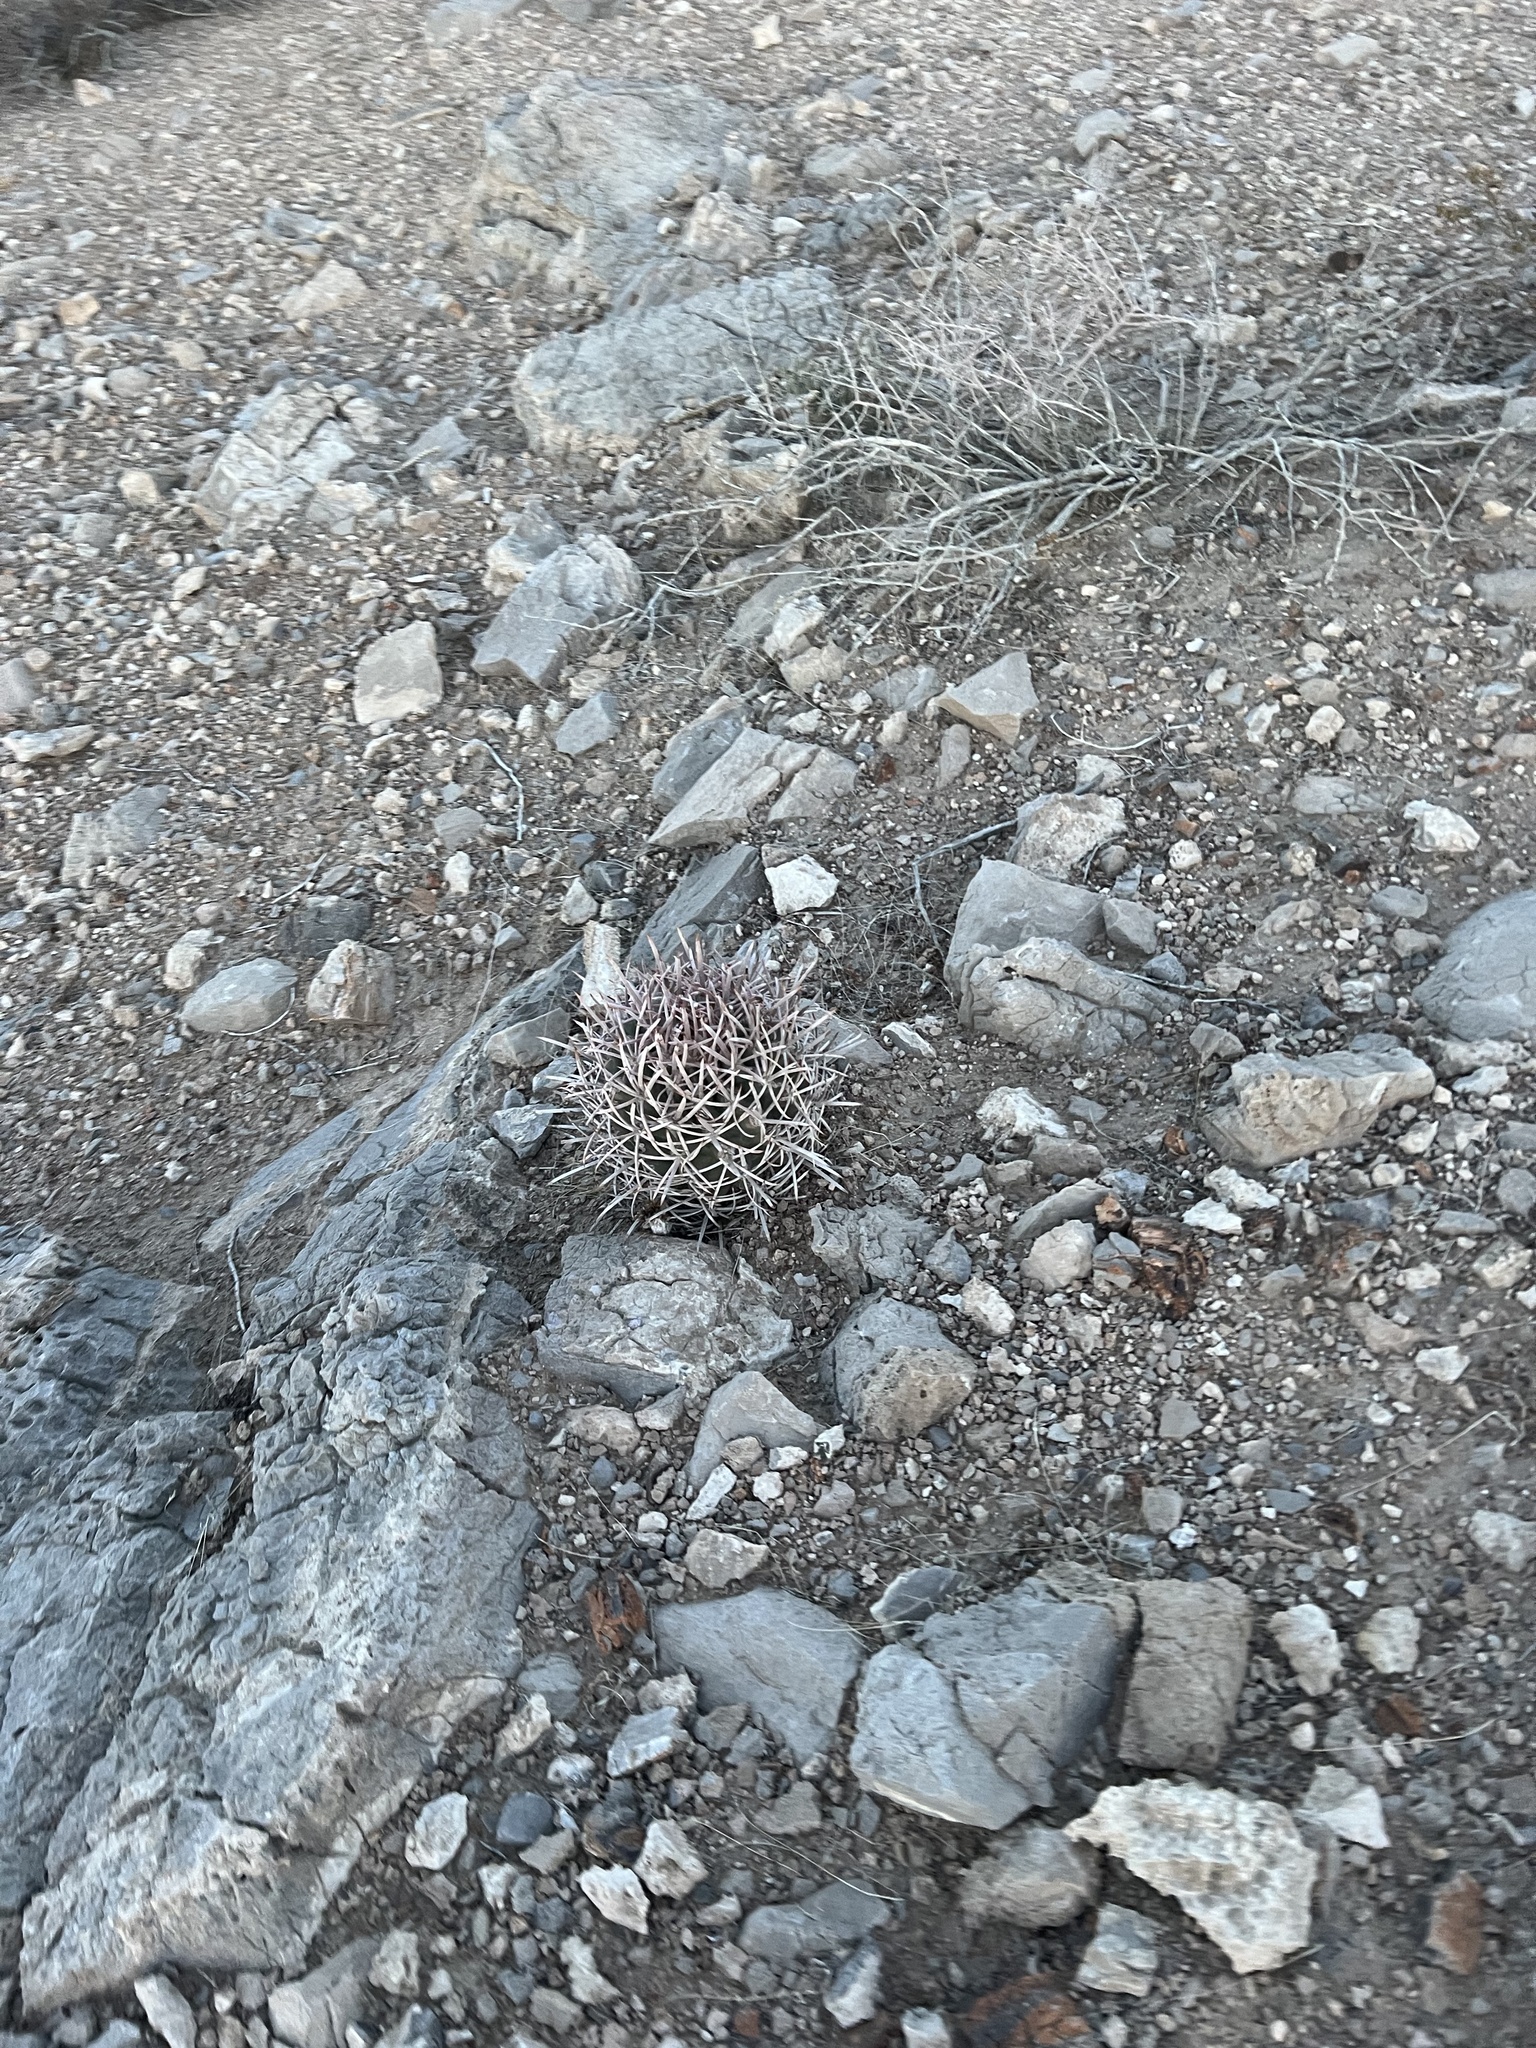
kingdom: Plantae
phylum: Tracheophyta
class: Magnoliopsida
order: Caryophyllales
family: Cactaceae
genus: Echinocactus
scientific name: Echinocactus polycephalus
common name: Cottontop cactus
